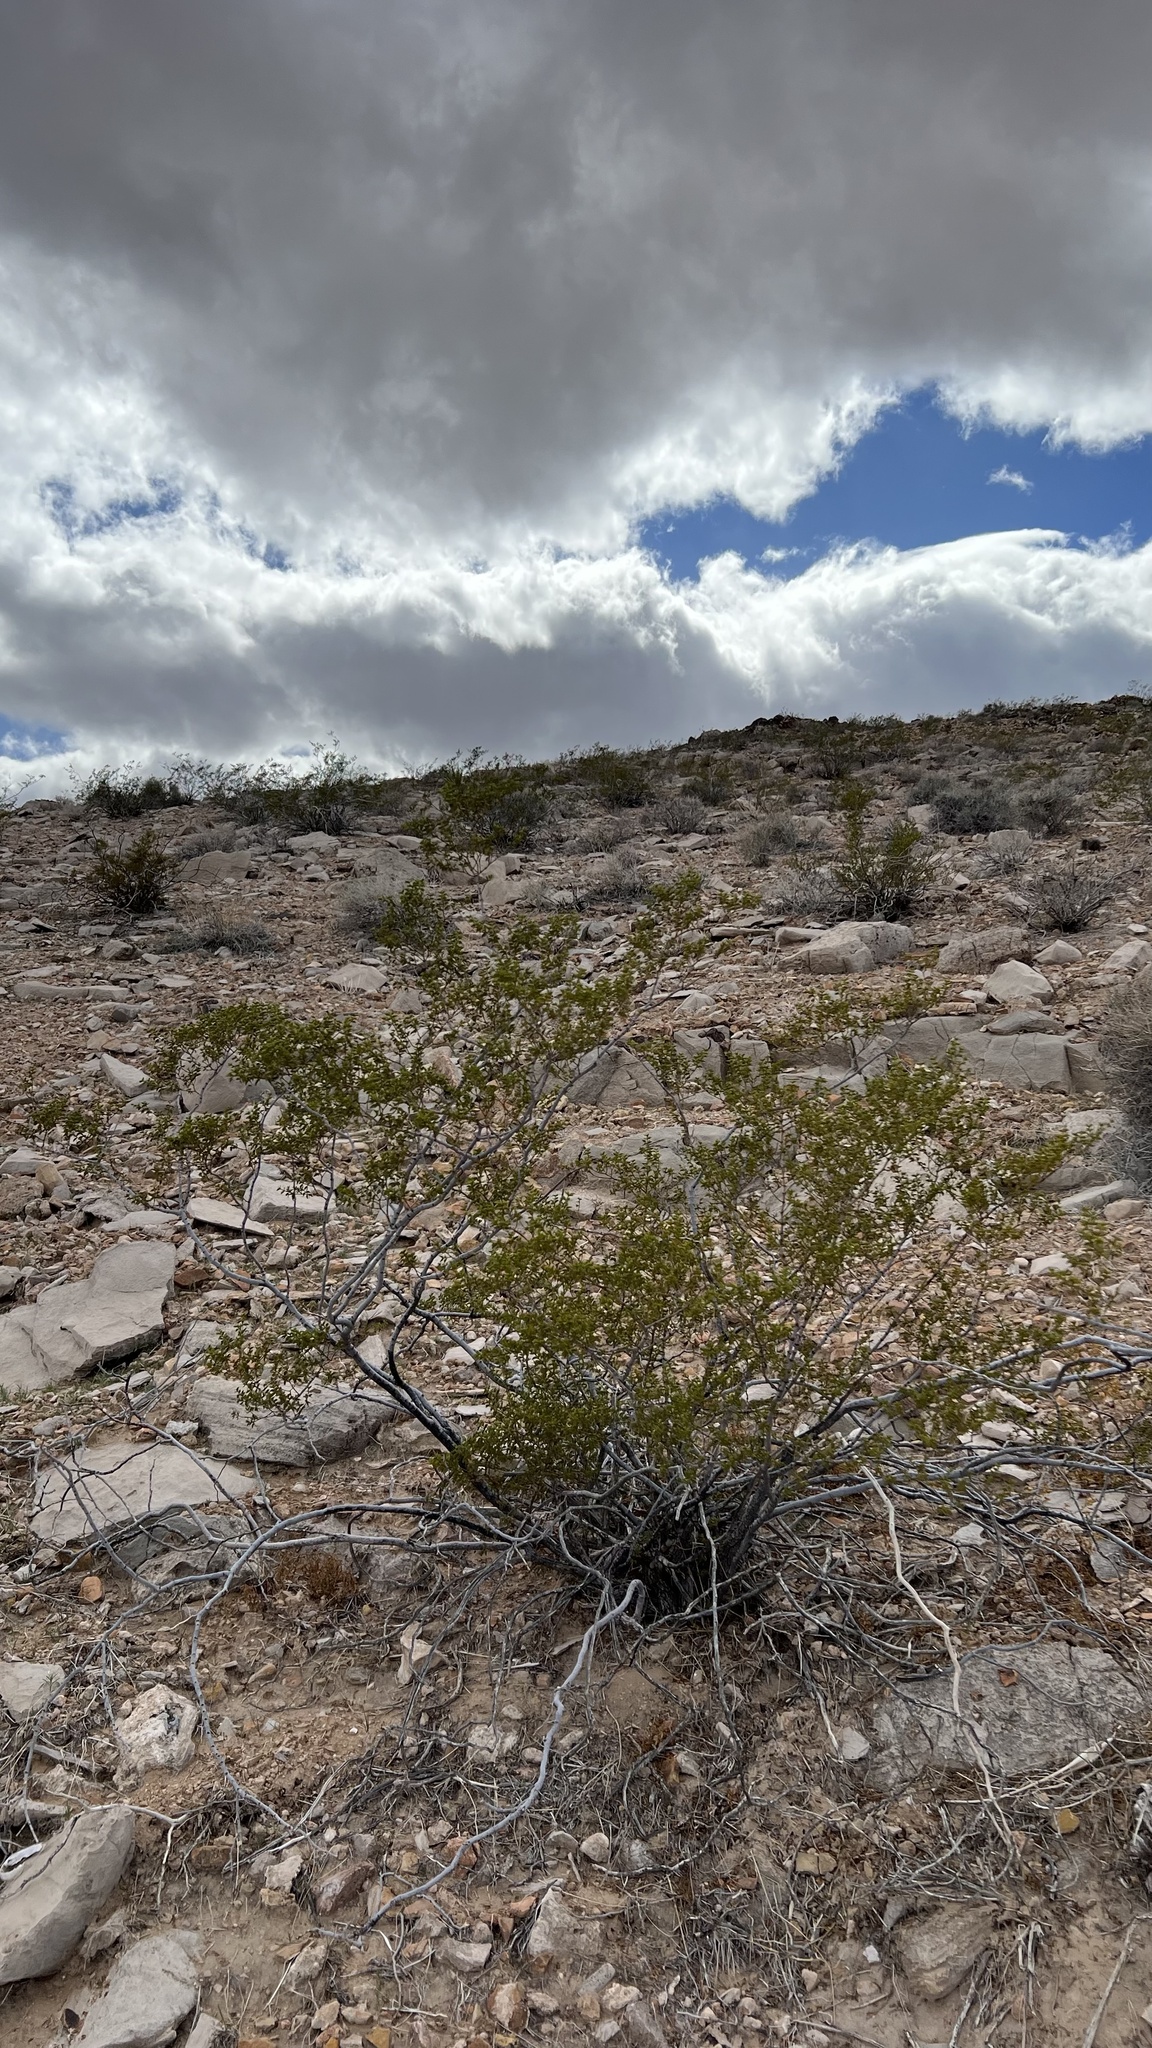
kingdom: Plantae
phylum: Tracheophyta
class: Magnoliopsida
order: Zygophyllales
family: Zygophyllaceae
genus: Larrea
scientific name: Larrea tridentata
